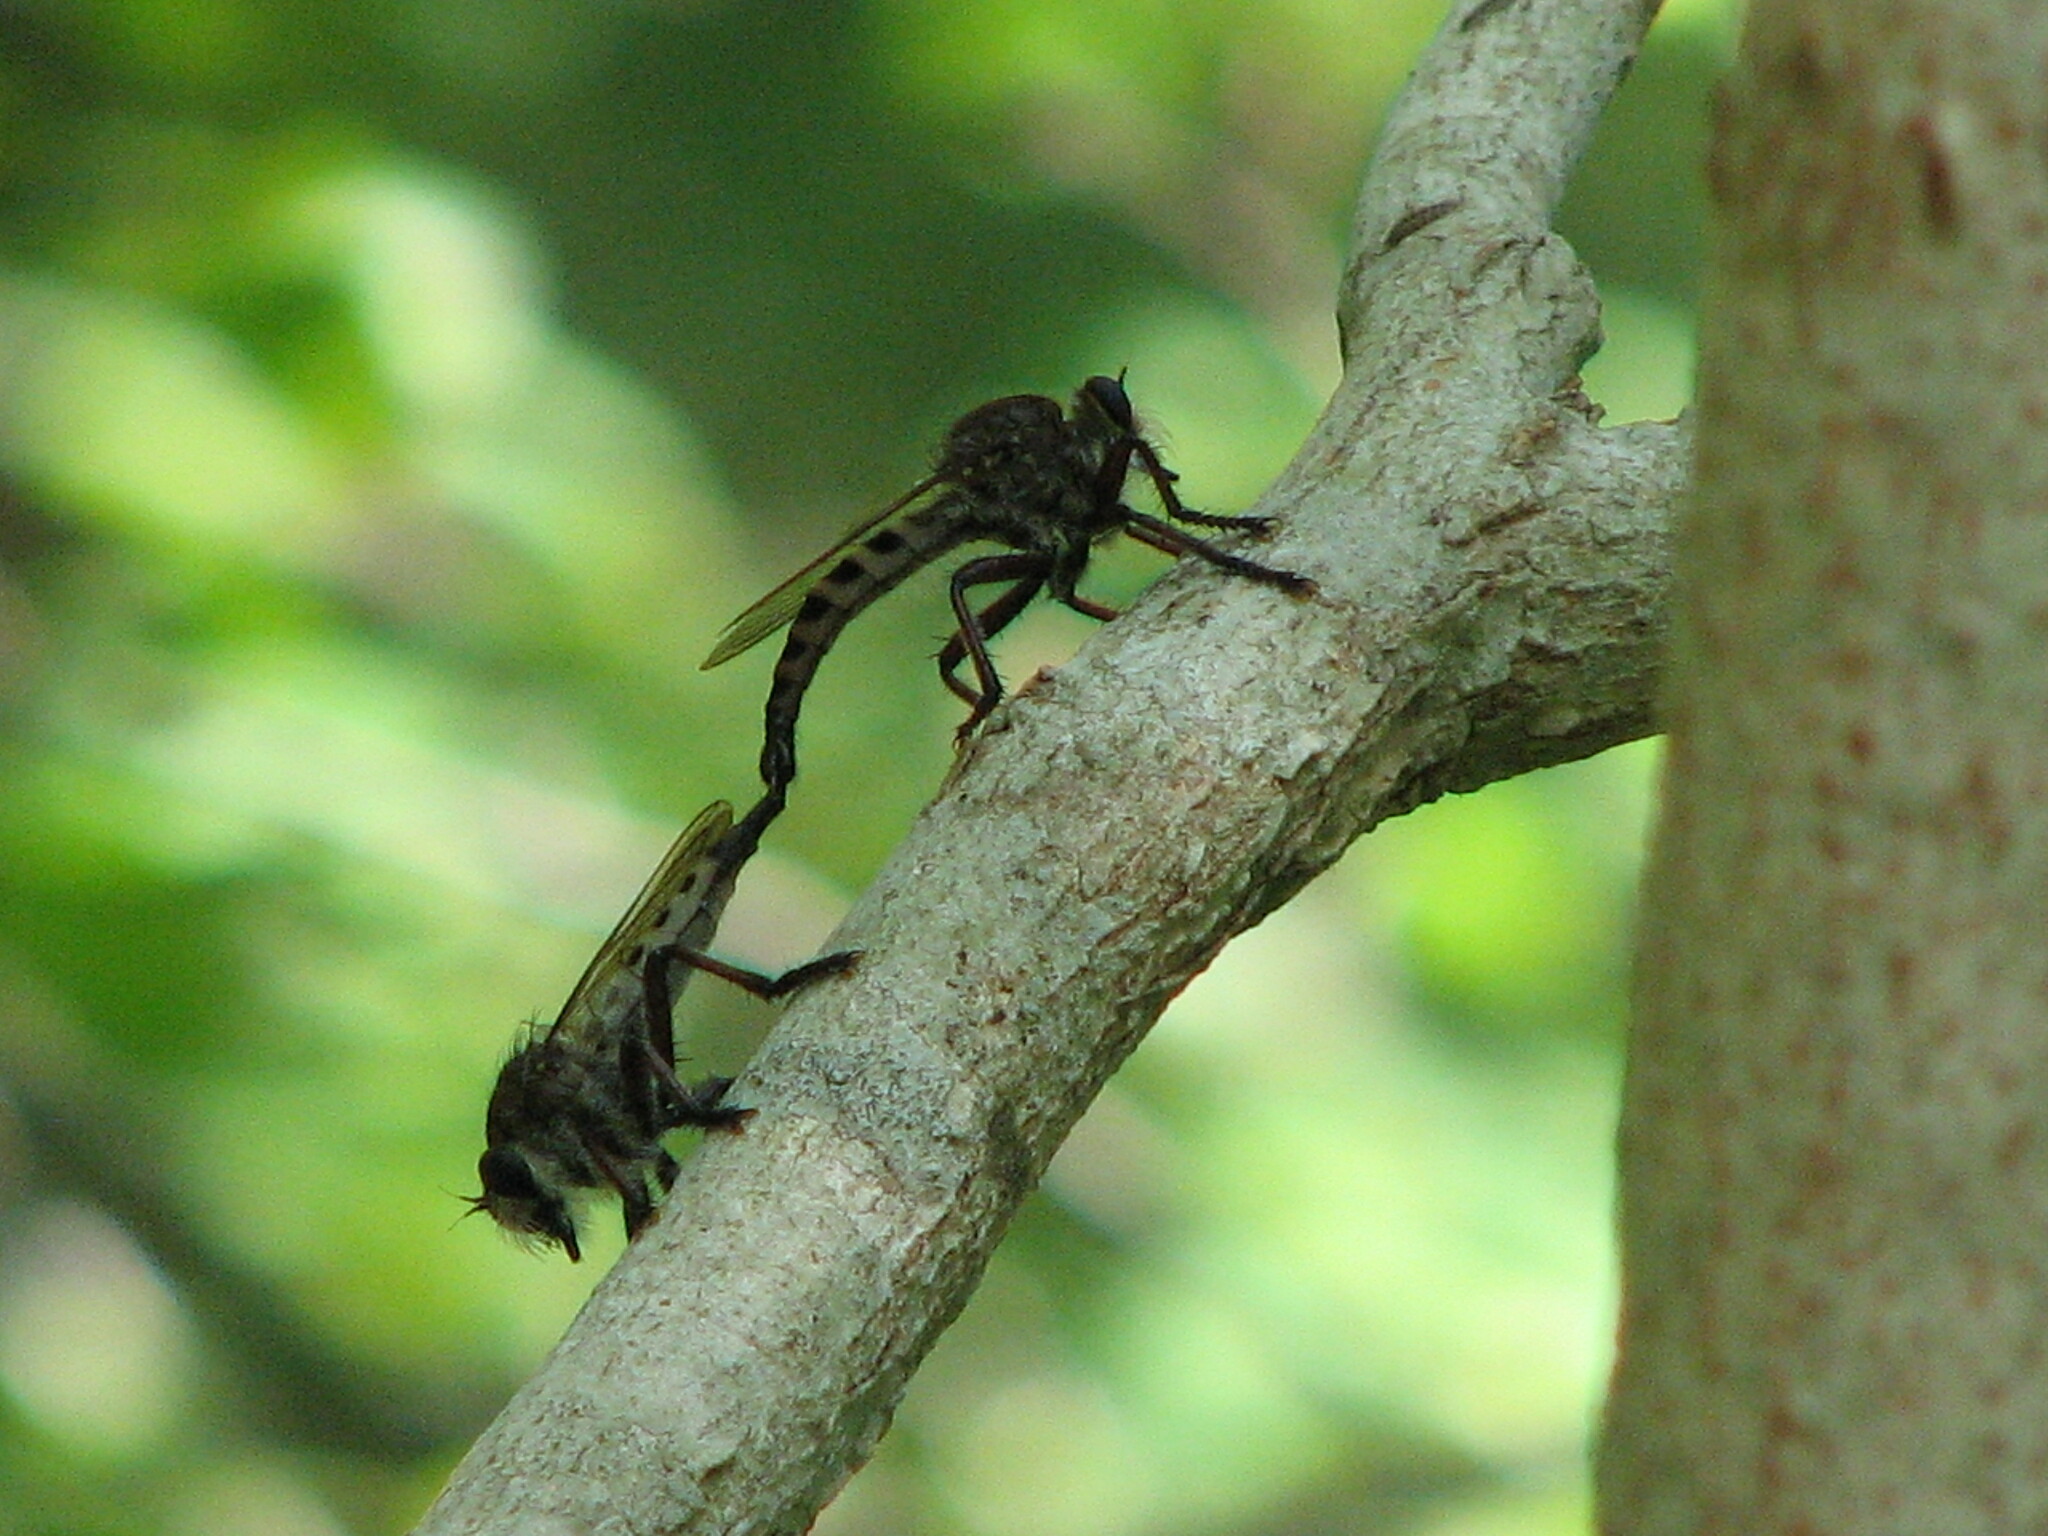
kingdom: Animalia
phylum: Arthropoda
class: Insecta
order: Diptera
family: Asilidae
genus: Promachus
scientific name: Promachus hinei
